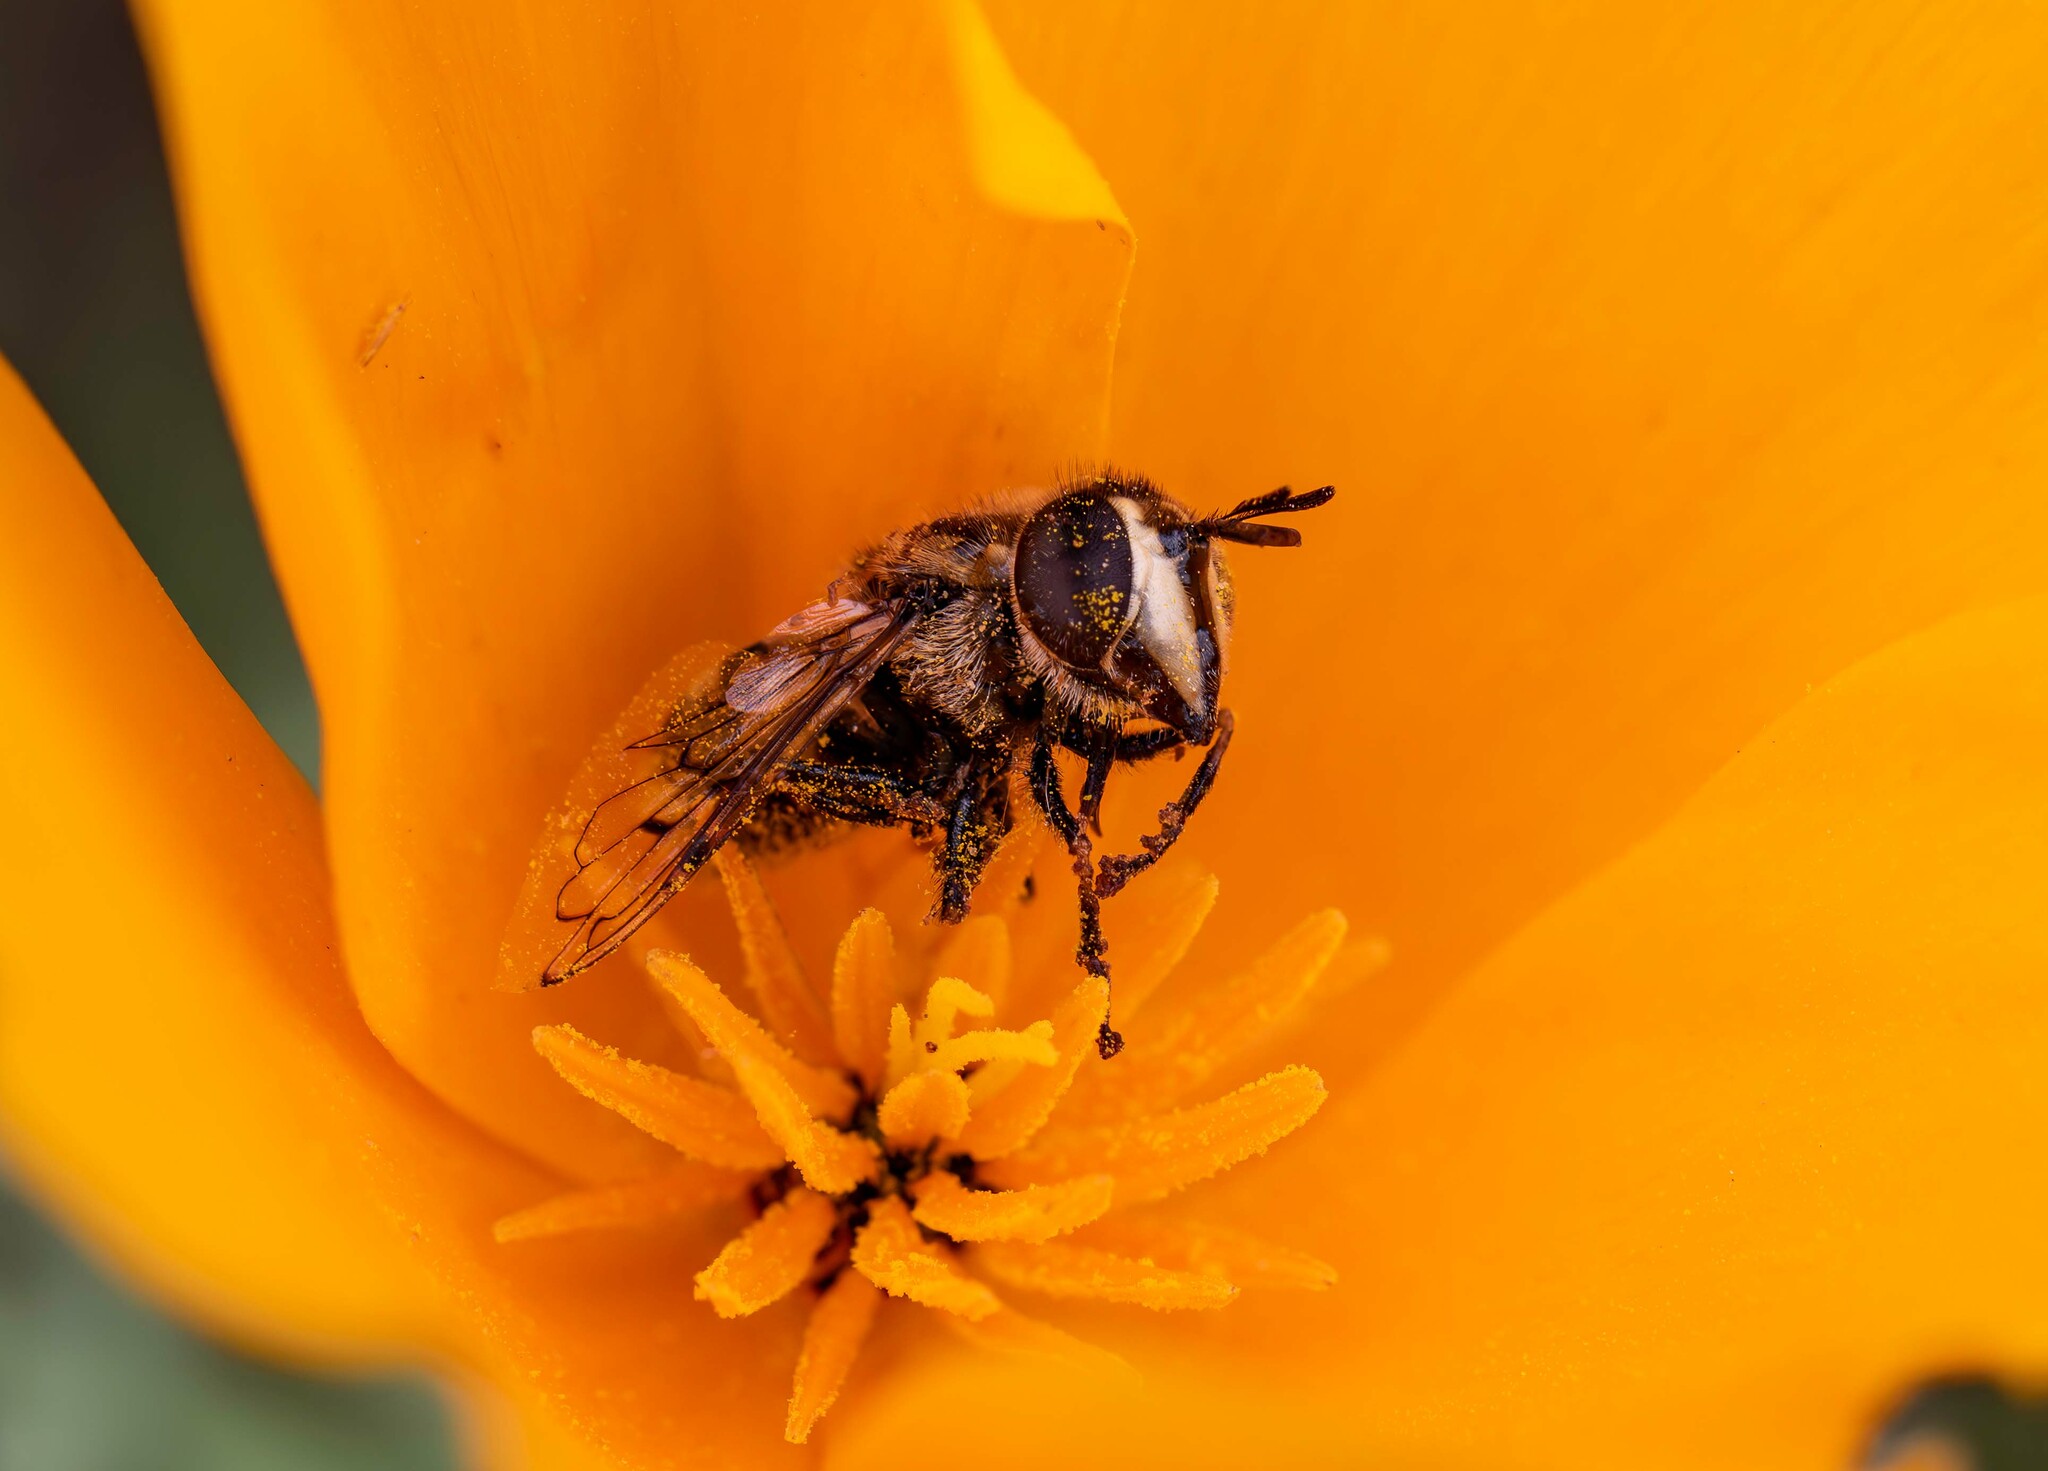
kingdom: Animalia
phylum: Arthropoda
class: Insecta
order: Diptera
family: Syrphidae
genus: Copestylum
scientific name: Copestylum
